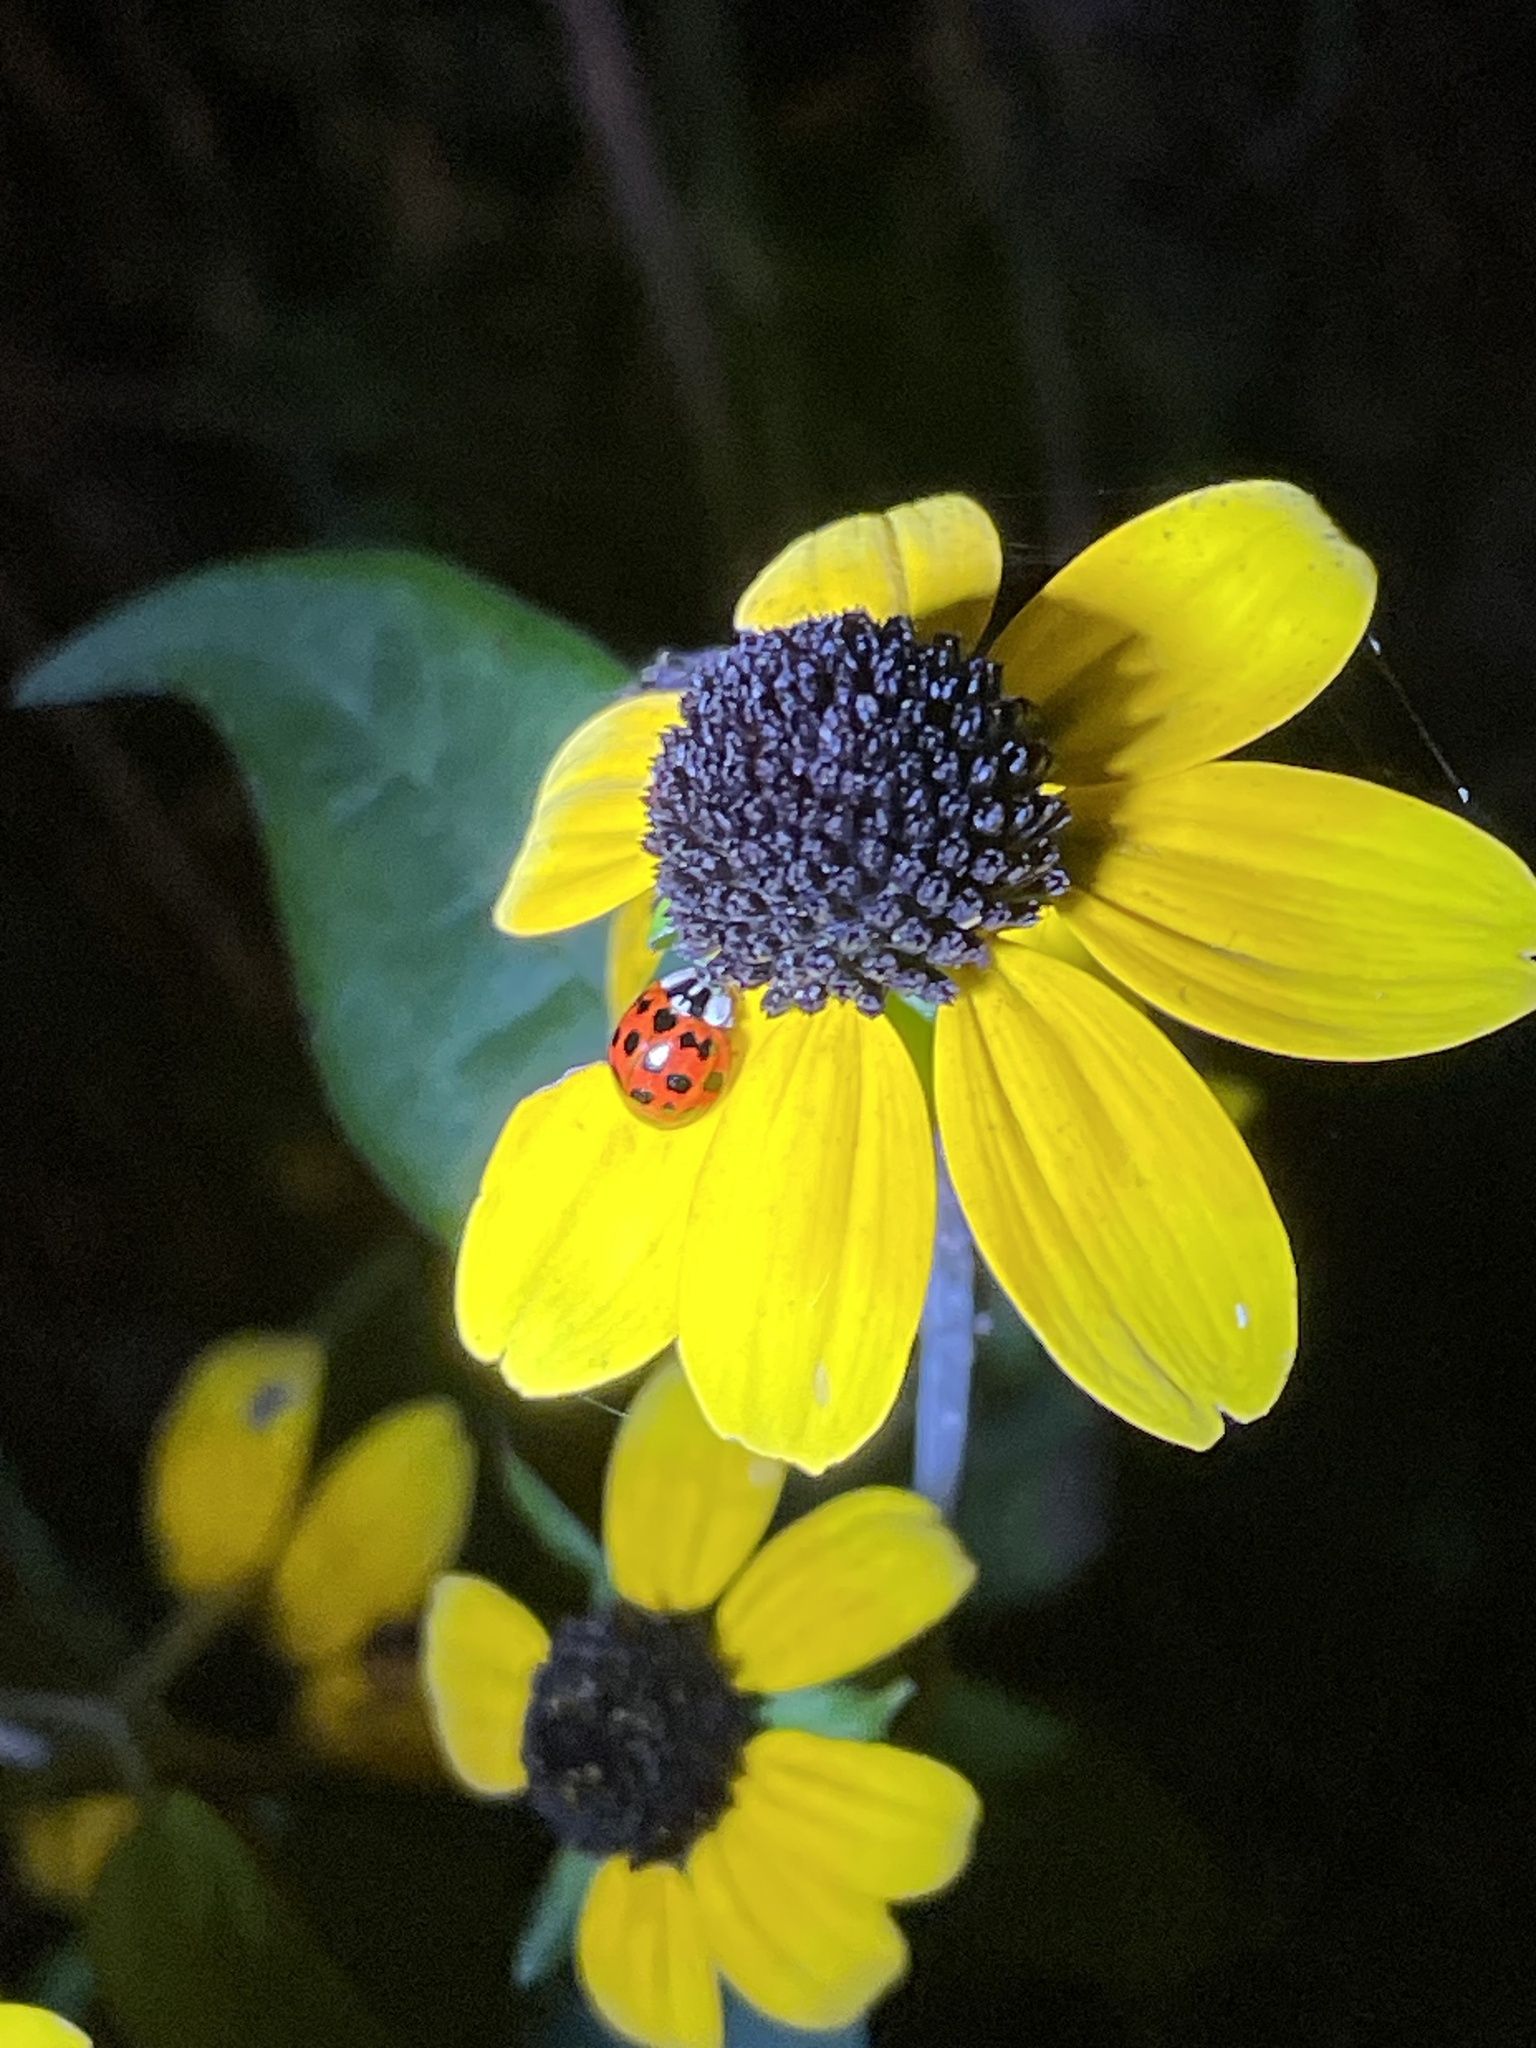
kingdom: Animalia
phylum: Arthropoda
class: Insecta
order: Coleoptera
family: Coccinellidae
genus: Harmonia
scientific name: Harmonia axyridis
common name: Harlequin ladybird
